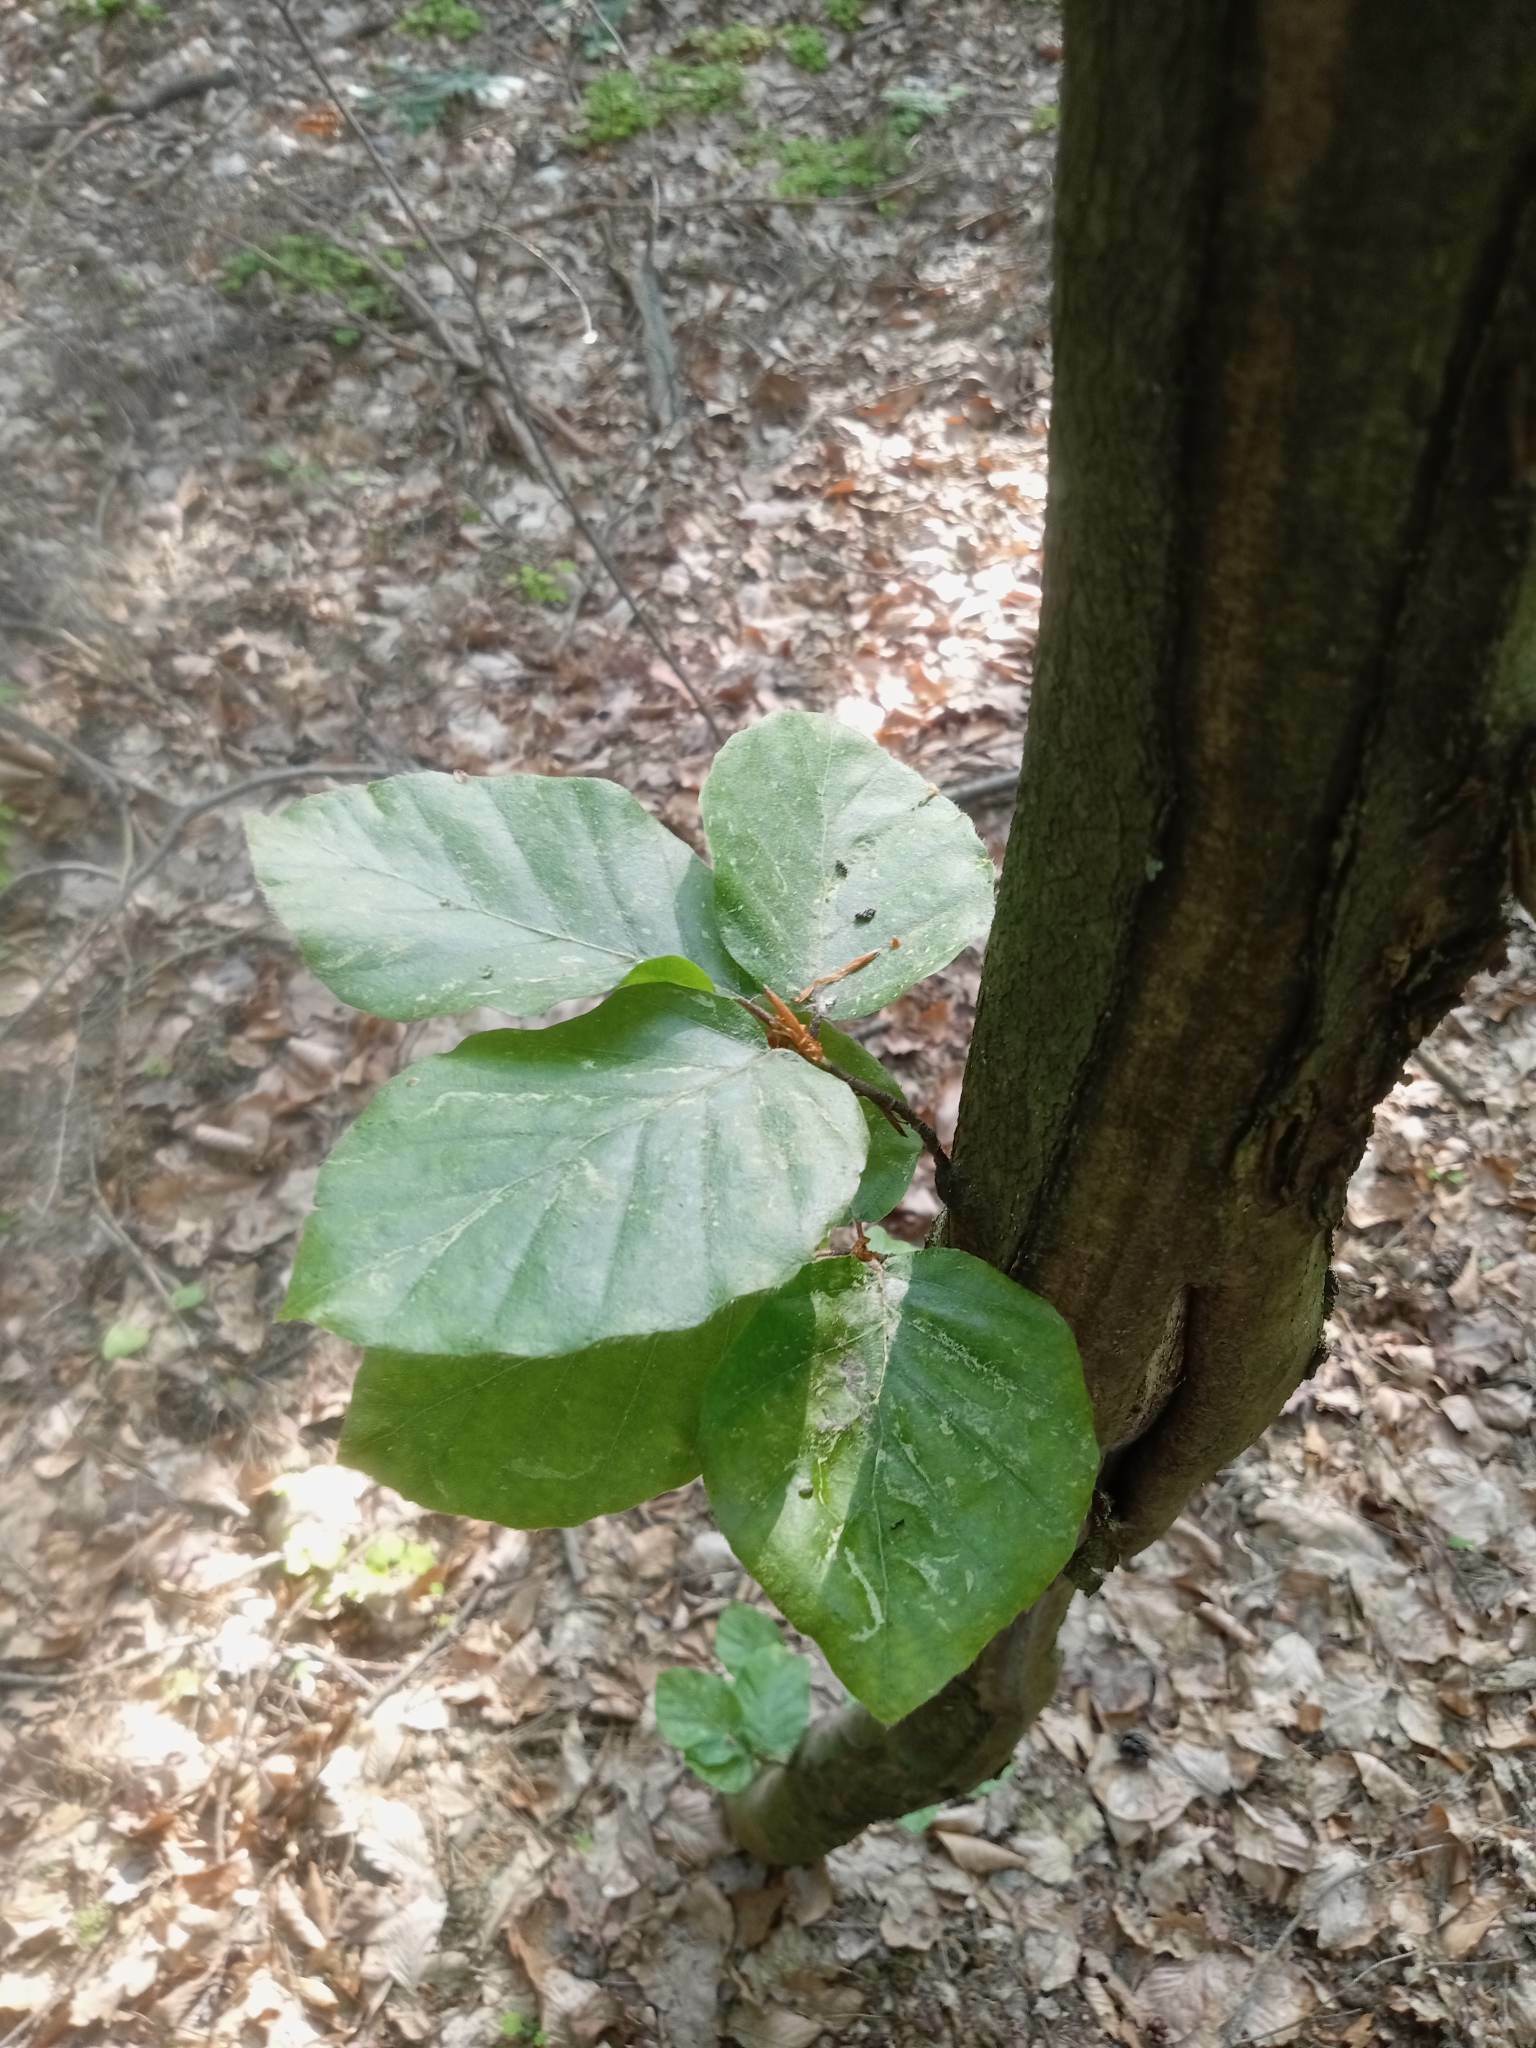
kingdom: Plantae
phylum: Tracheophyta
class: Magnoliopsida
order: Fagales
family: Fagaceae
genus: Fagus
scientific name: Fagus sylvatica
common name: Beech
